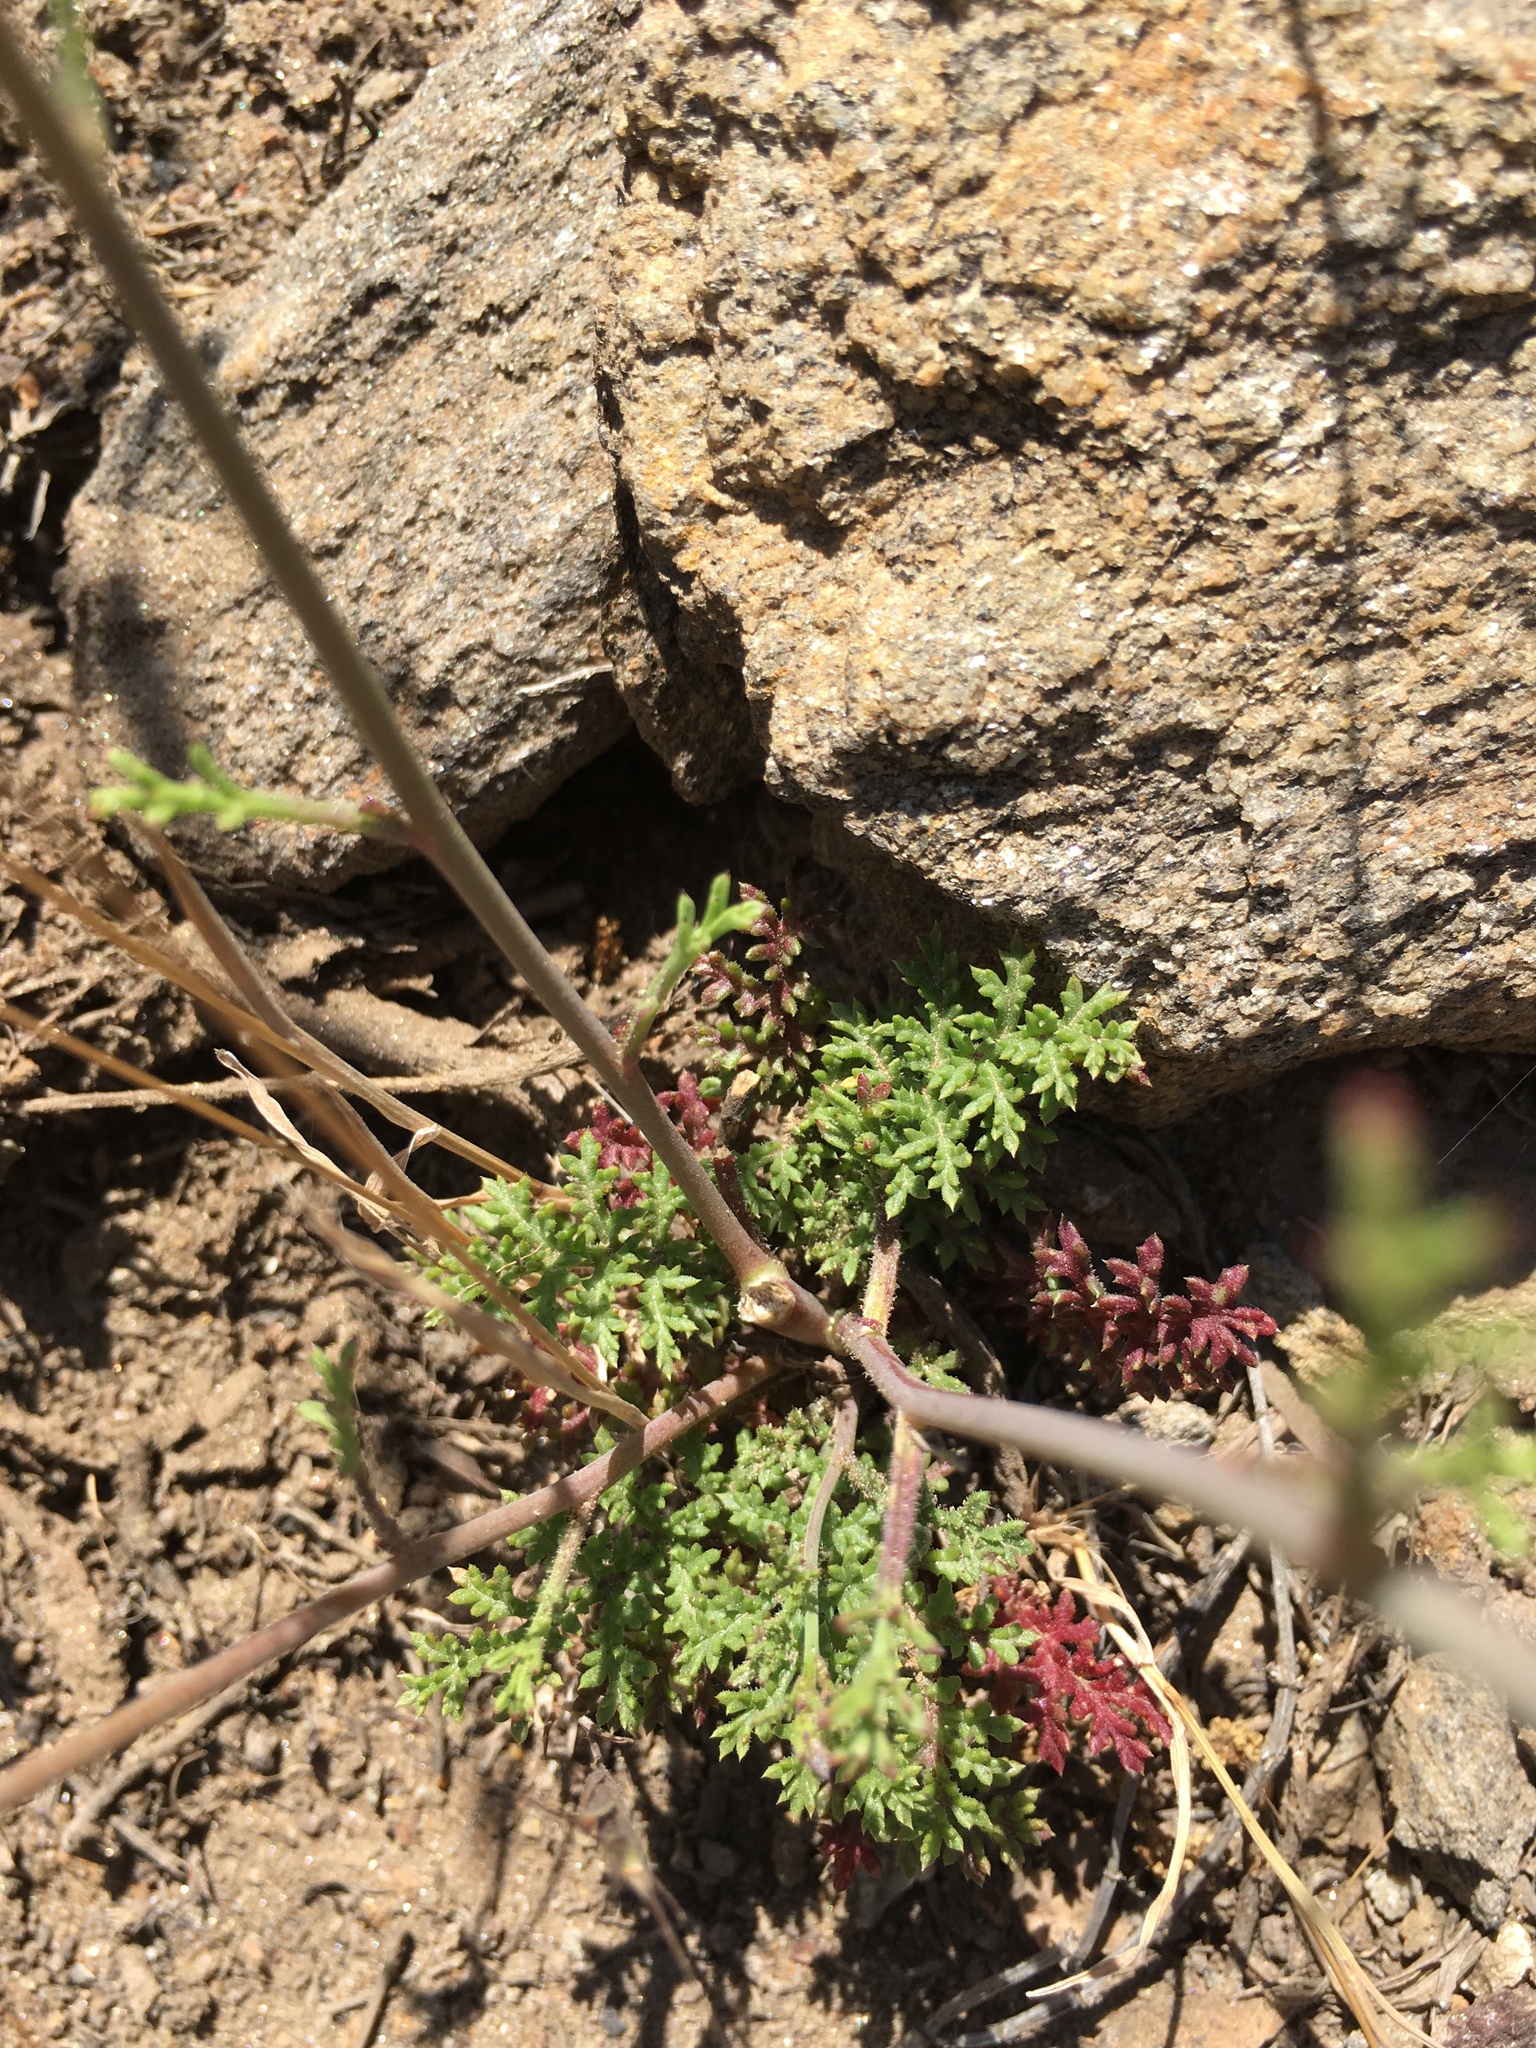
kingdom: Plantae
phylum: Tracheophyta
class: Magnoliopsida
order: Ericales
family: Polemoniaceae
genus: Saltugilia
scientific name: Saltugilia caruifolia
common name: Carawayleaf gilia
